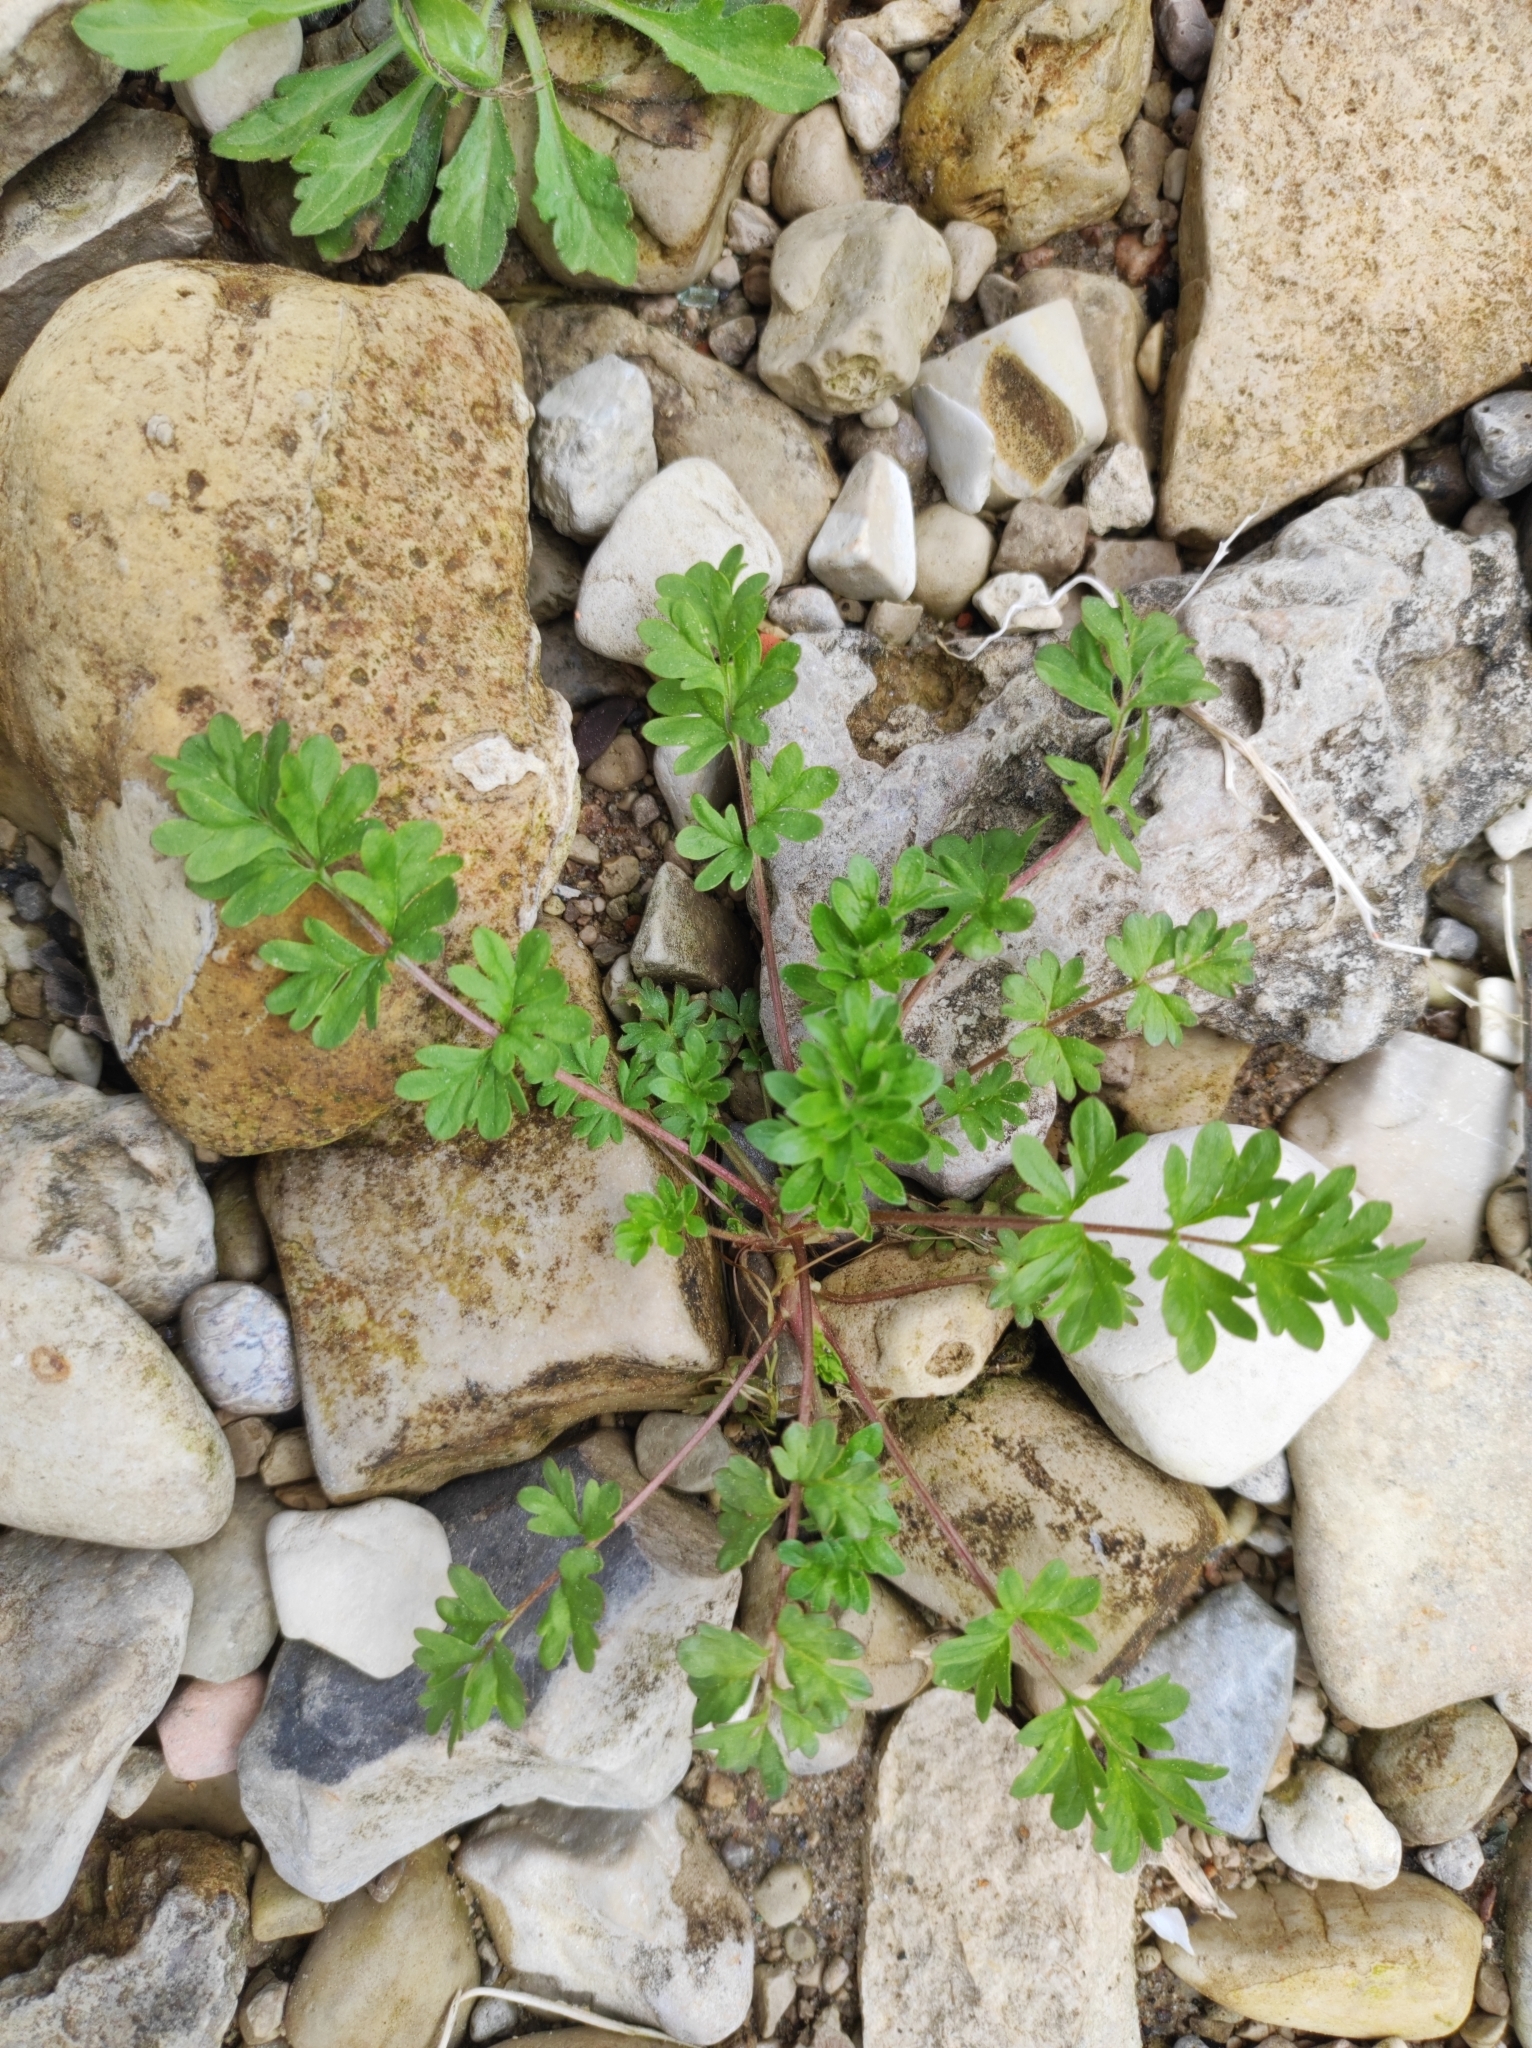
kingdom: Plantae
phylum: Tracheophyta
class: Magnoliopsida
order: Rosales
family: Rosaceae
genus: Potentilla
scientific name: Potentilla supina
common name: Prostrate cinquefoil
